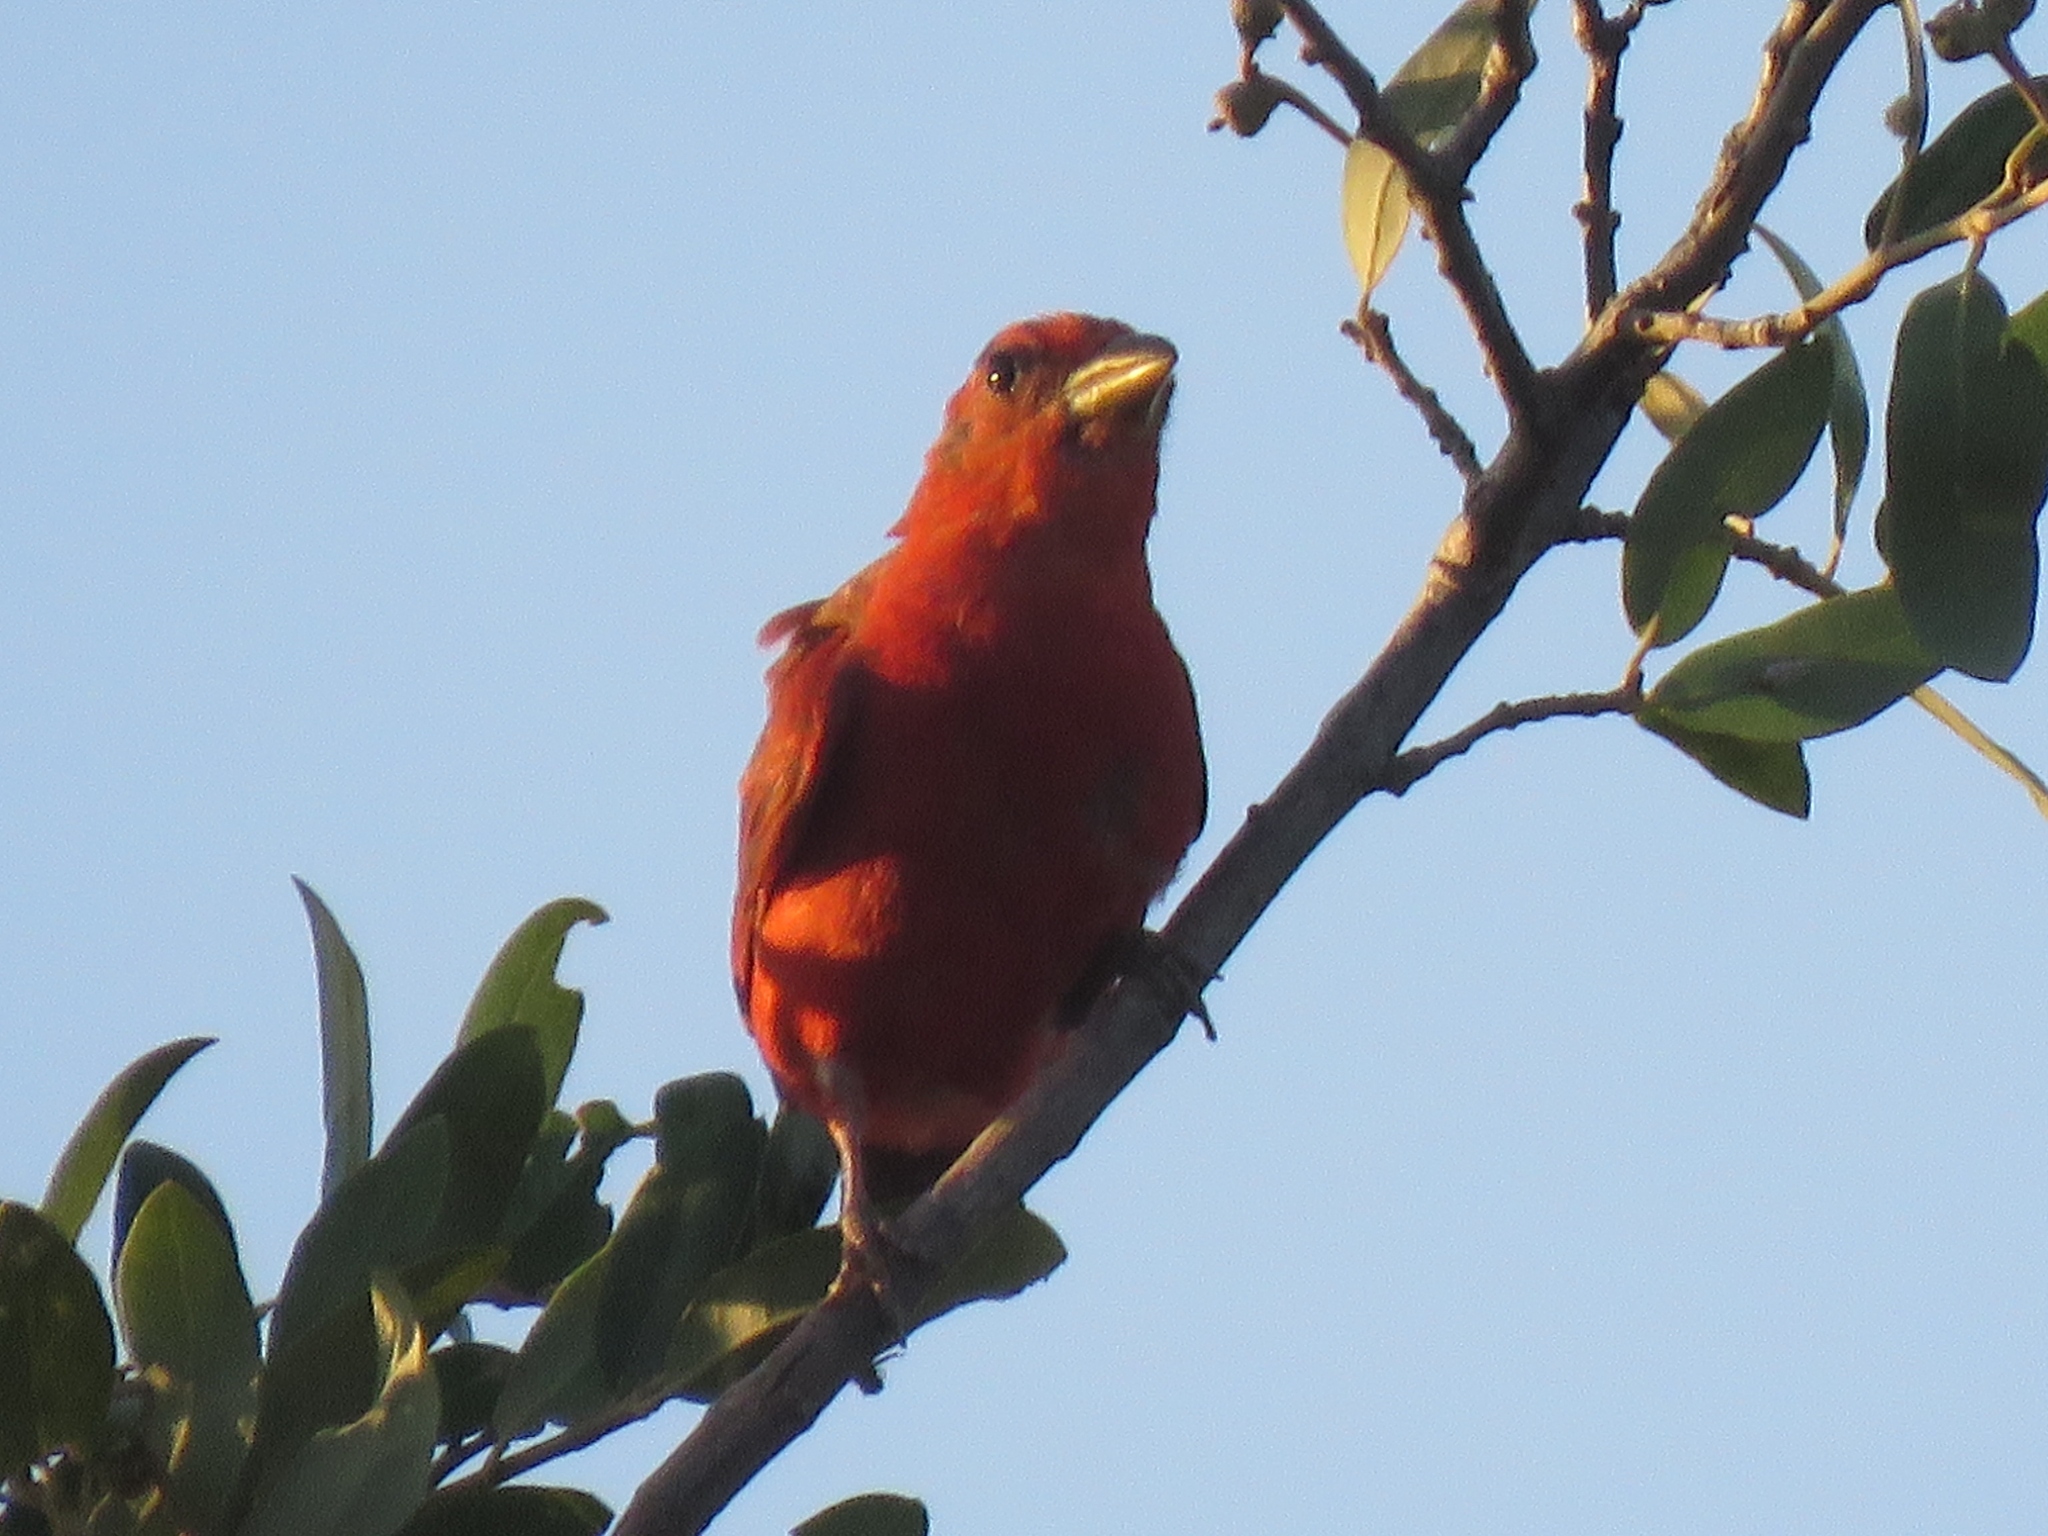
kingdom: Animalia
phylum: Chordata
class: Aves
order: Passeriformes
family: Cardinalidae
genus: Piranga
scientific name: Piranga rubra
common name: Summer tanager
